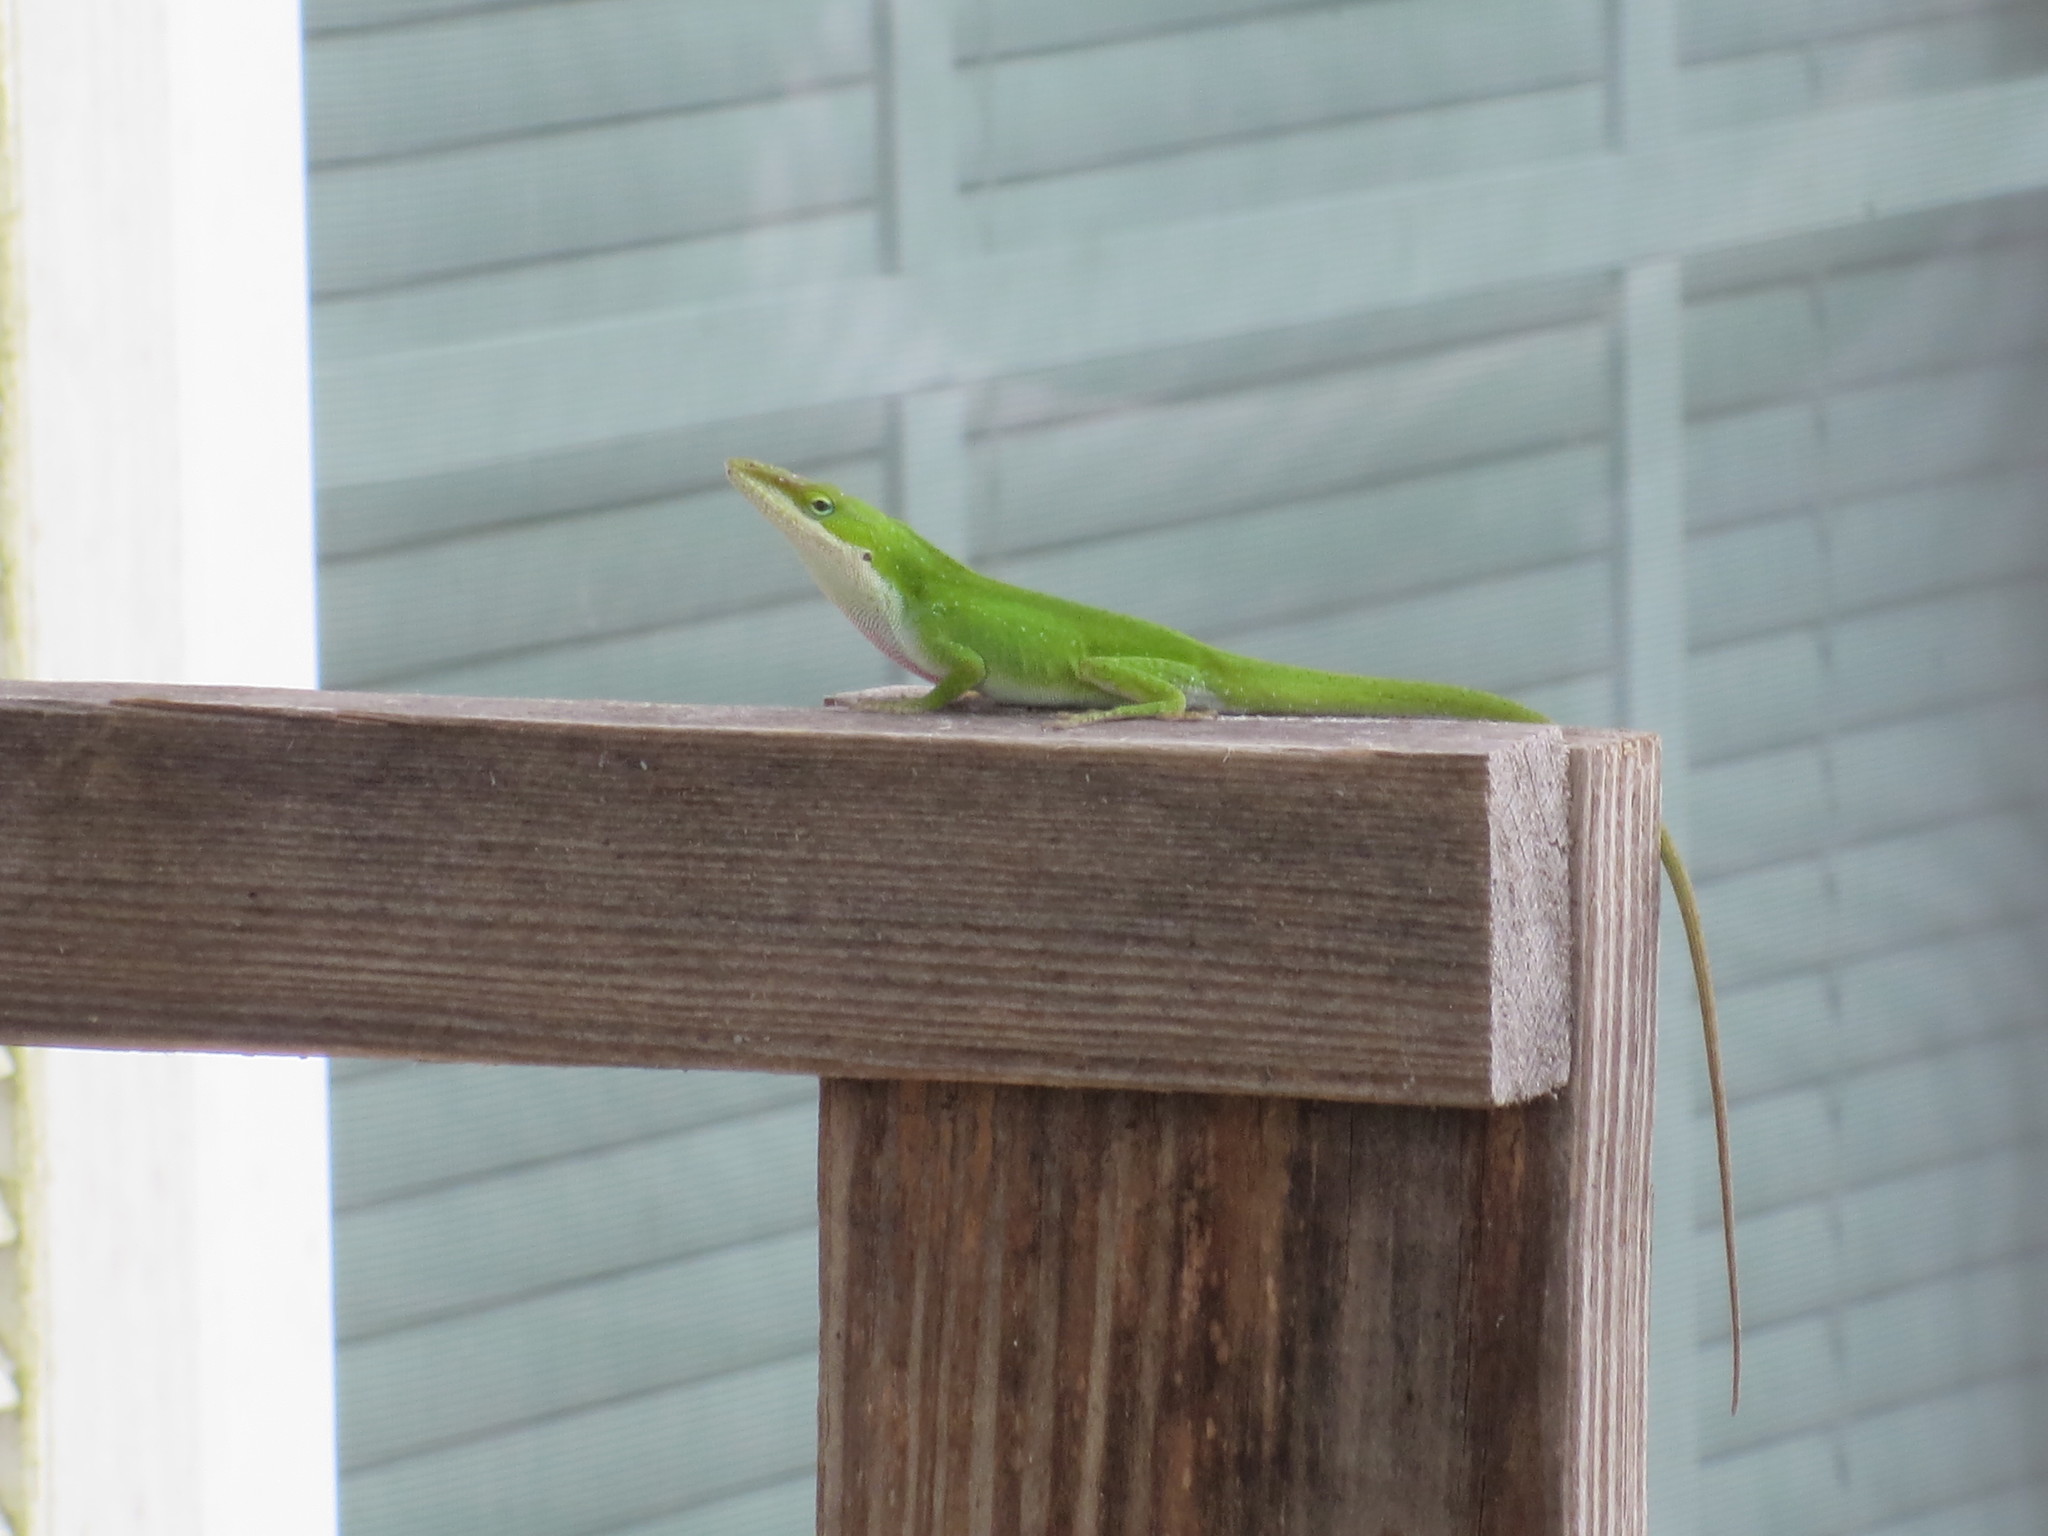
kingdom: Animalia
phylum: Chordata
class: Squamata
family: Dactyloidae
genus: Anolis
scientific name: Anolis carolinensis
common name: Green anole
